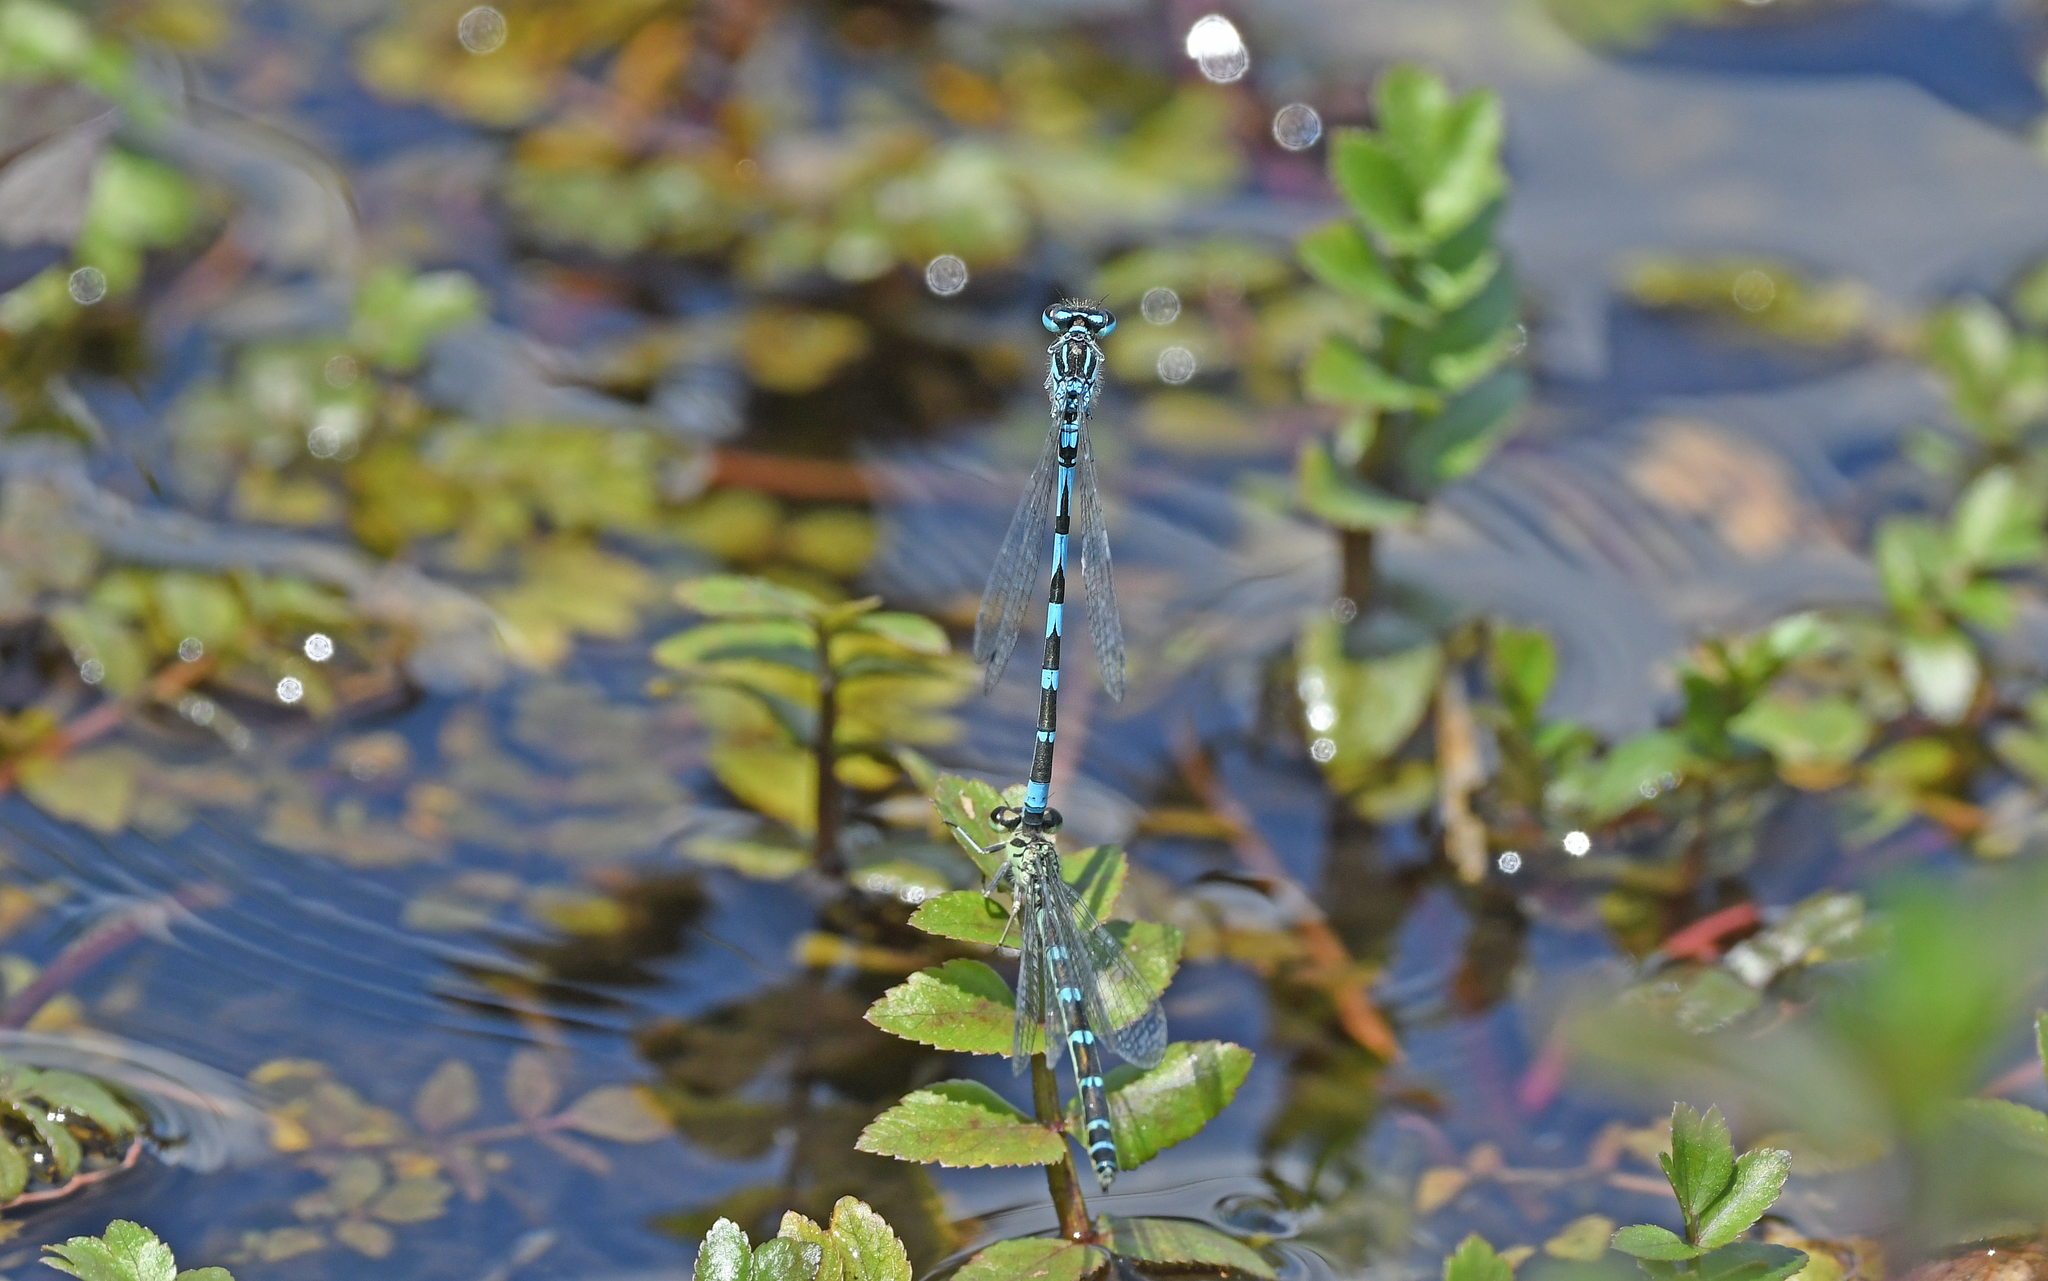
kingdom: Animalia
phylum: Arthropoda
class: Insecta
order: Odonata
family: Coenagrionidae
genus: Coenagrion
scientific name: Coenagrion ornatum
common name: Ornate bluet
